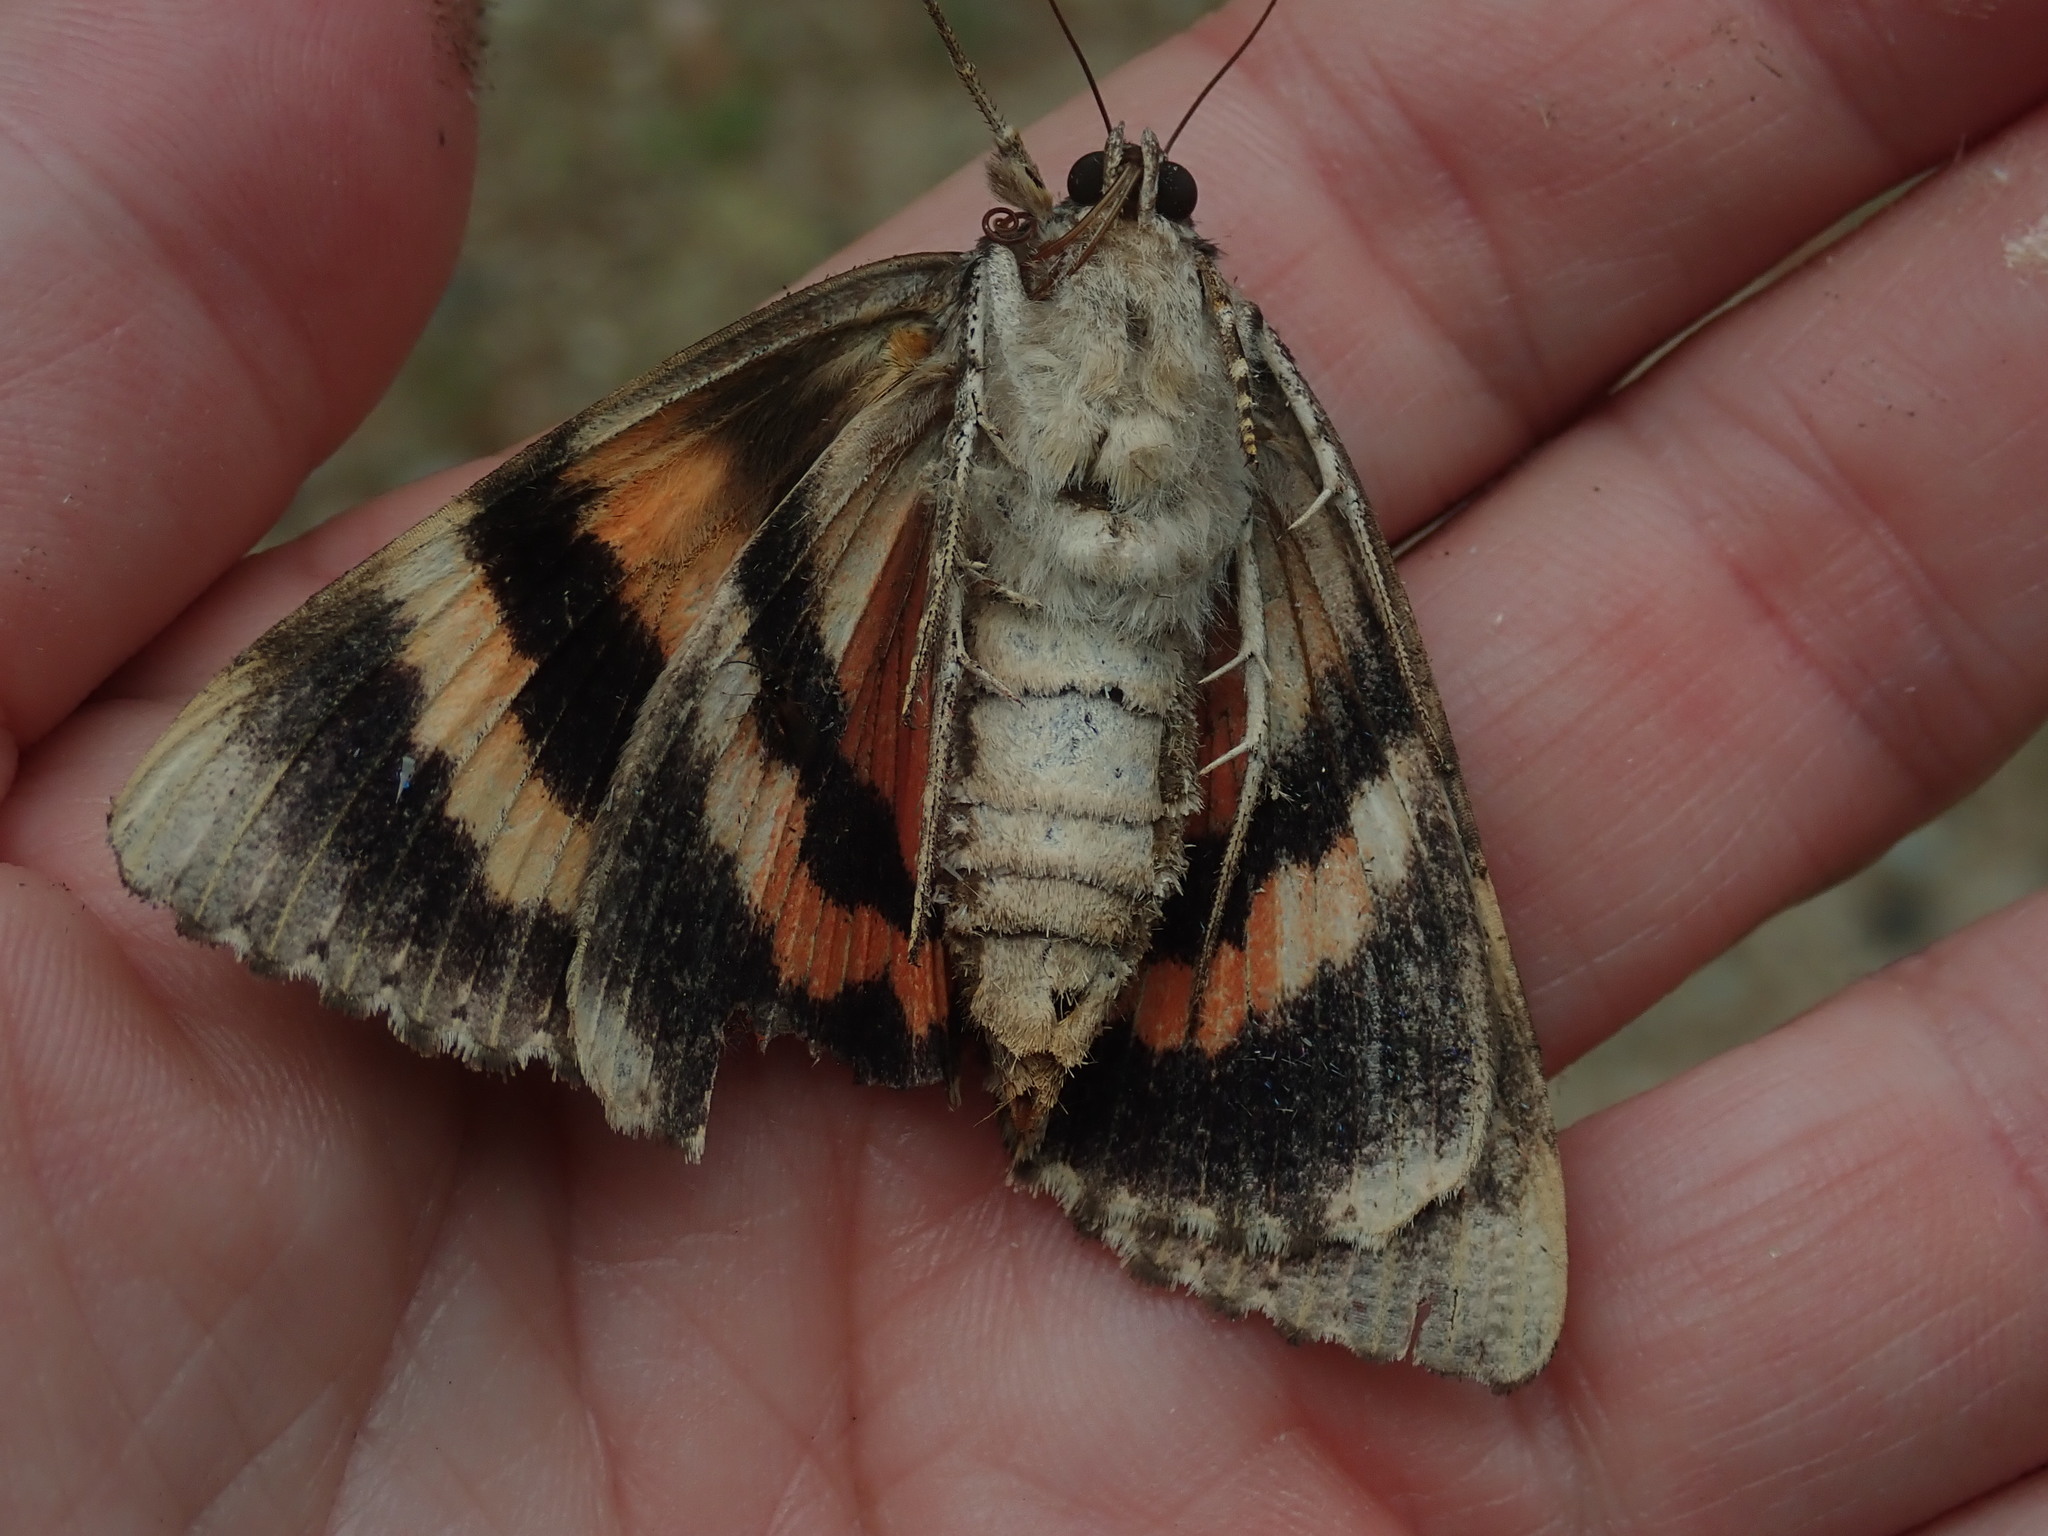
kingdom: Animalia
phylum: Arthropoda
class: Insecta
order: Lepidoptera
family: Erebidae
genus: Catocala
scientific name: Catocala ilia
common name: Ilia underwing
